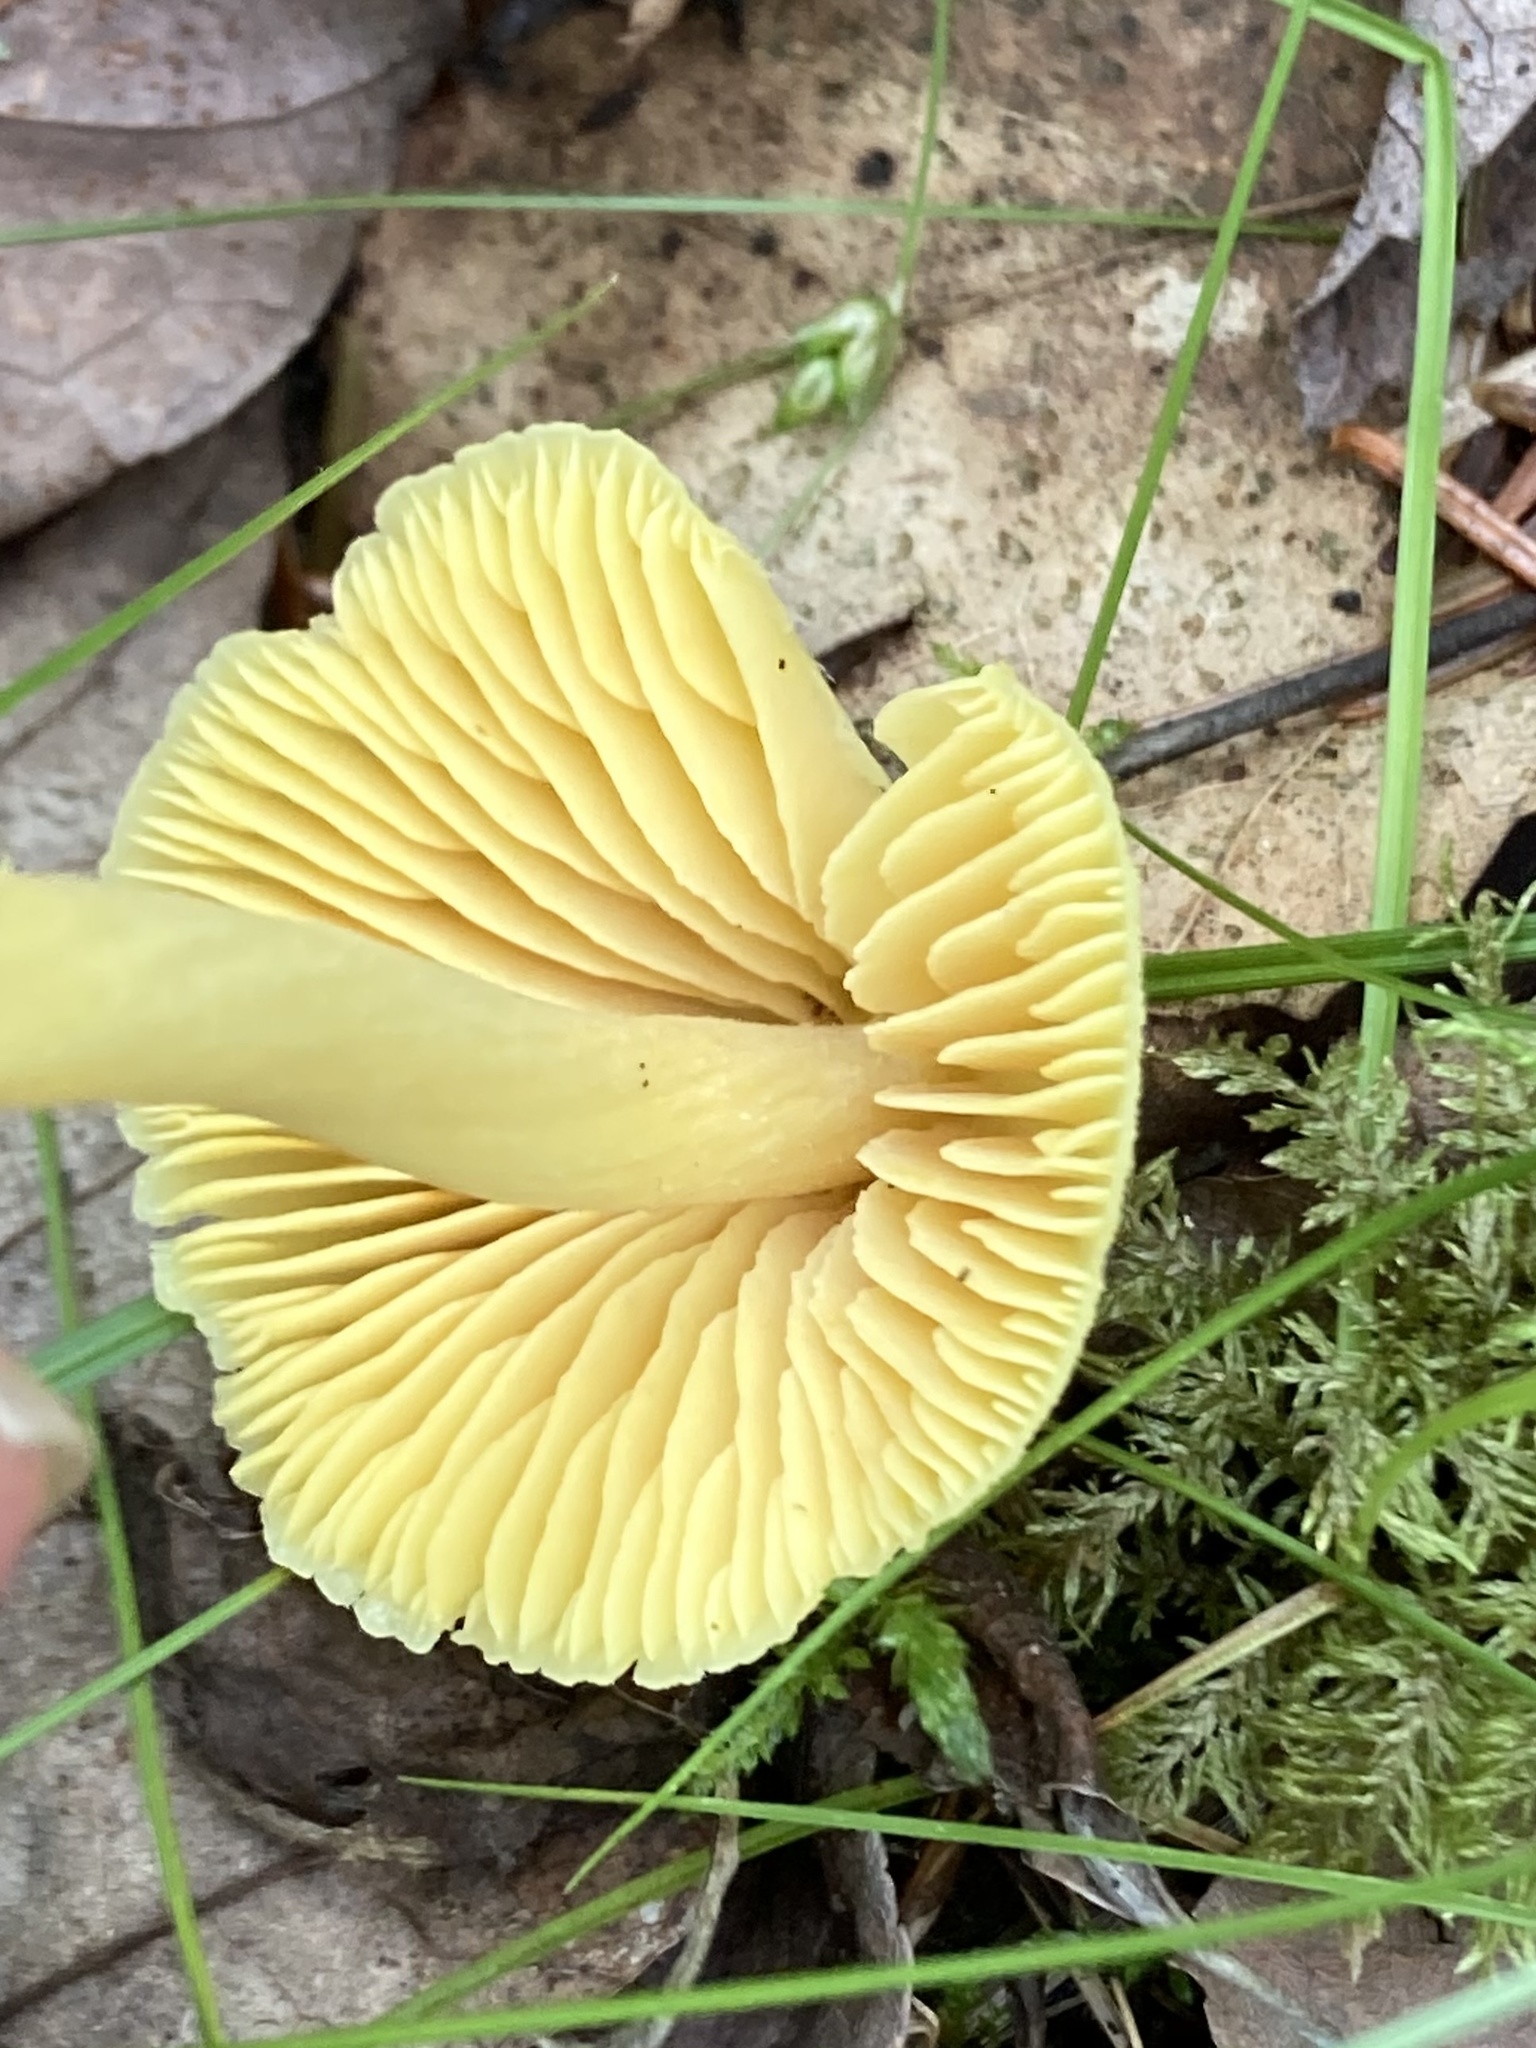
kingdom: Fungi
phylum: Basidiomycota
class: Agaricomycetes
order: Agaricales
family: Entolomataceae
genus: Entoloma
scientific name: Entoloma murrayi
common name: Yellow unicorn entoloma
